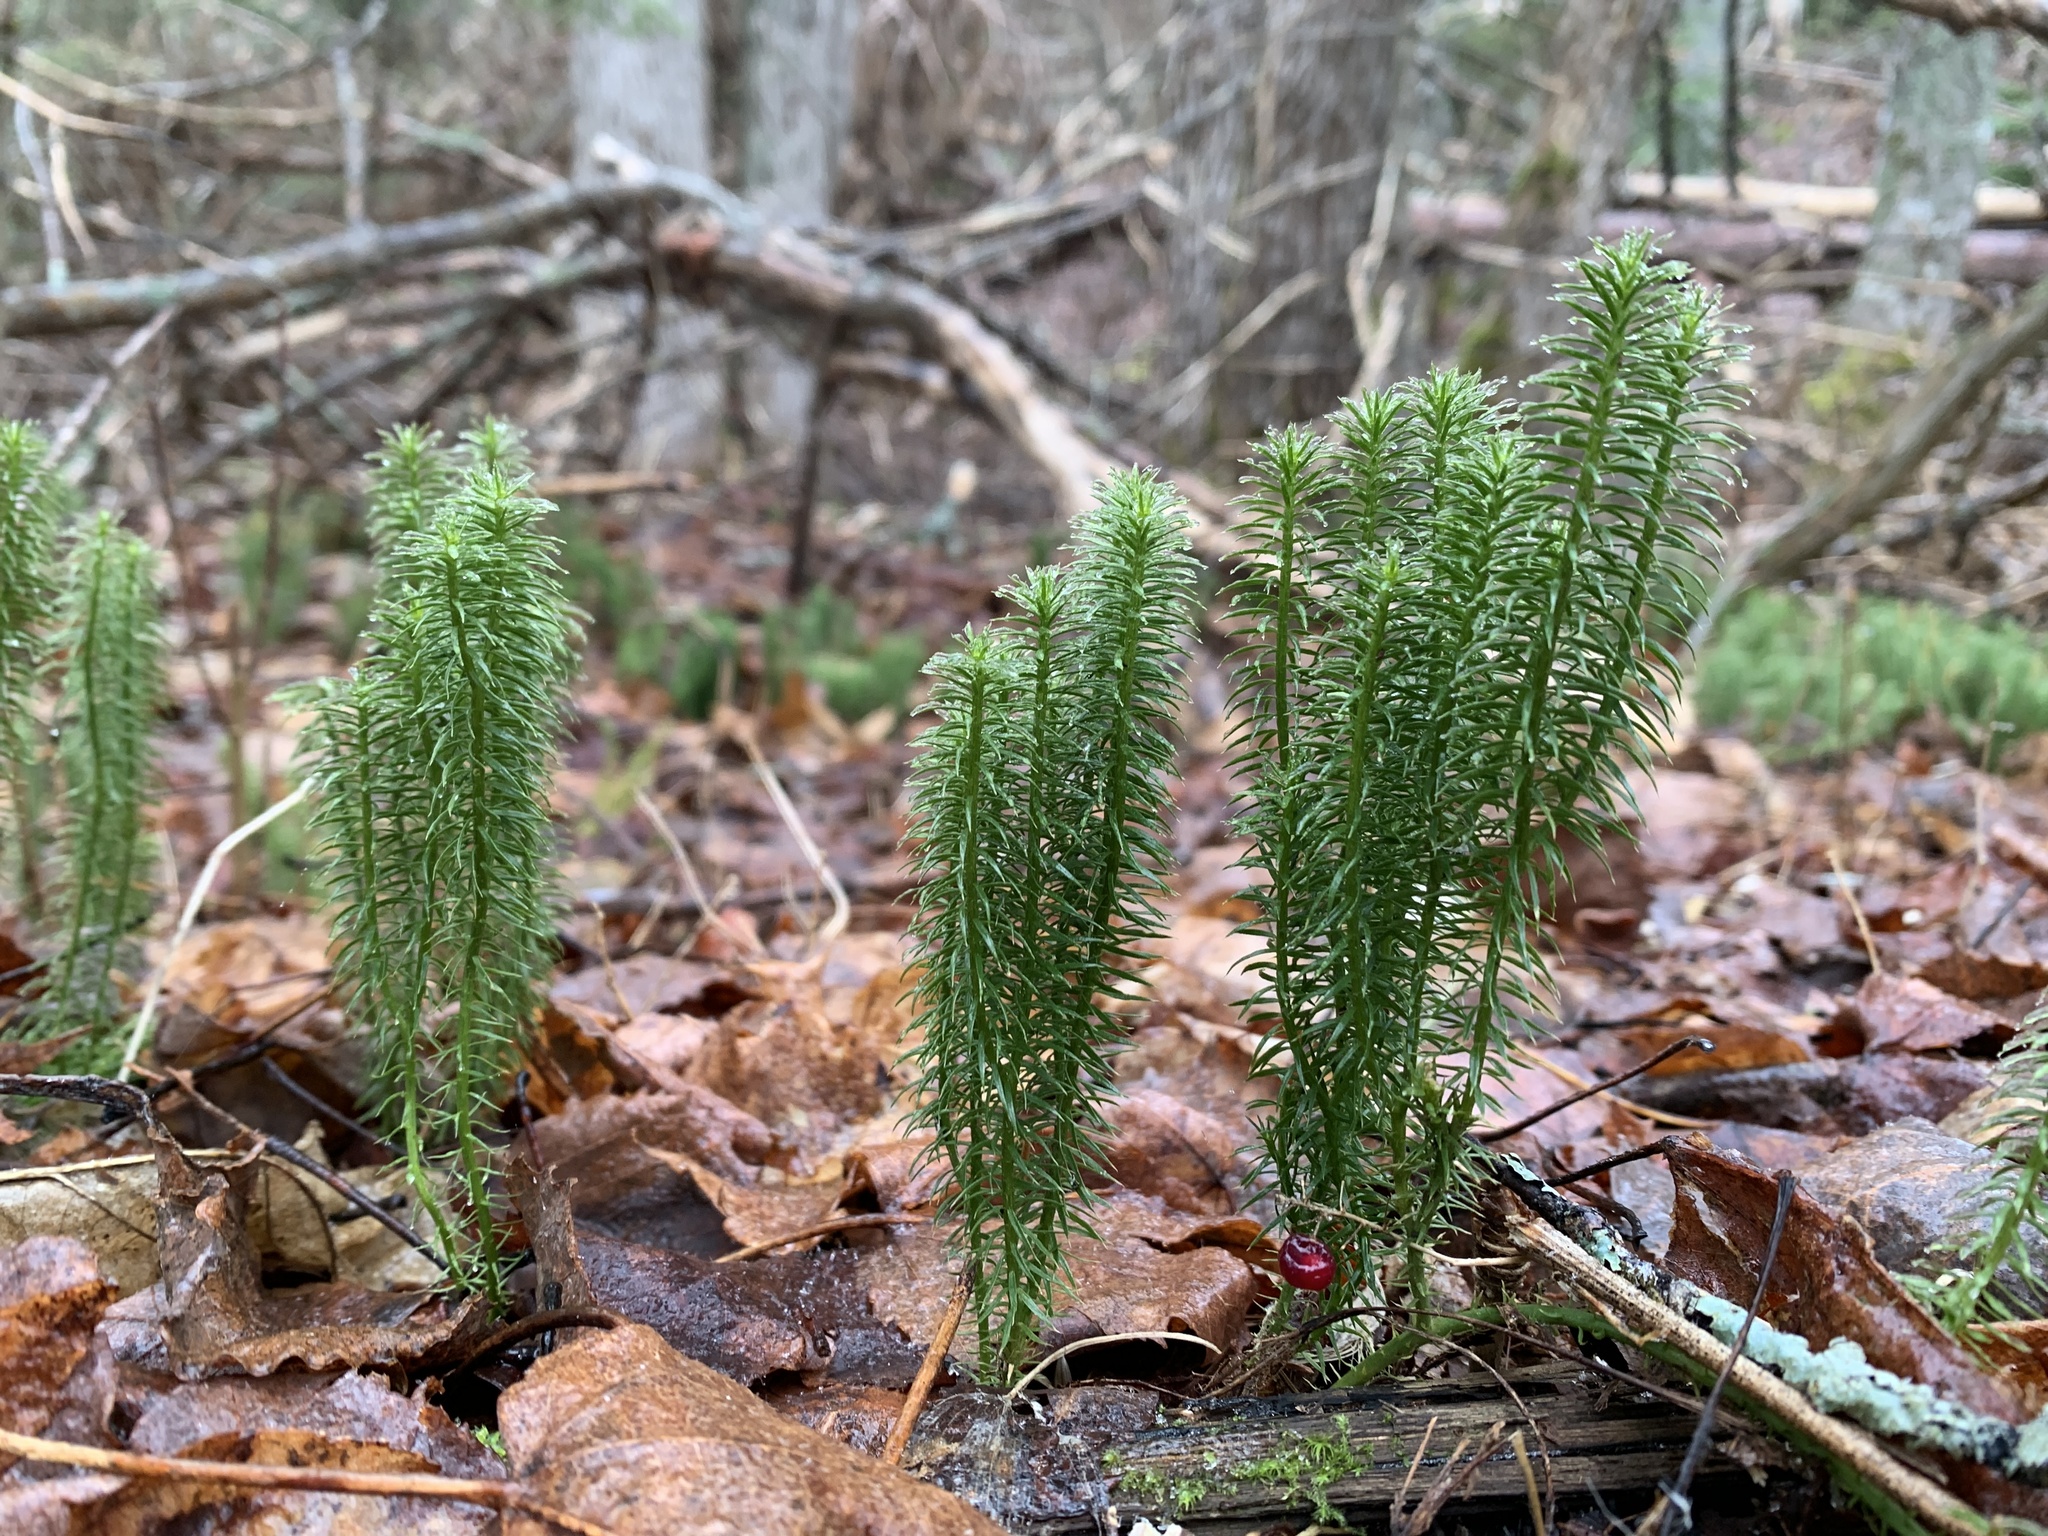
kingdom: Plantae
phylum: Tracheophyta
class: Lycopodiopsida
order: Lycopodiales
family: Lycopodiaceae
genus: Spinulum
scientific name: Spinulum annotinum
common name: Interrupted club-moss
